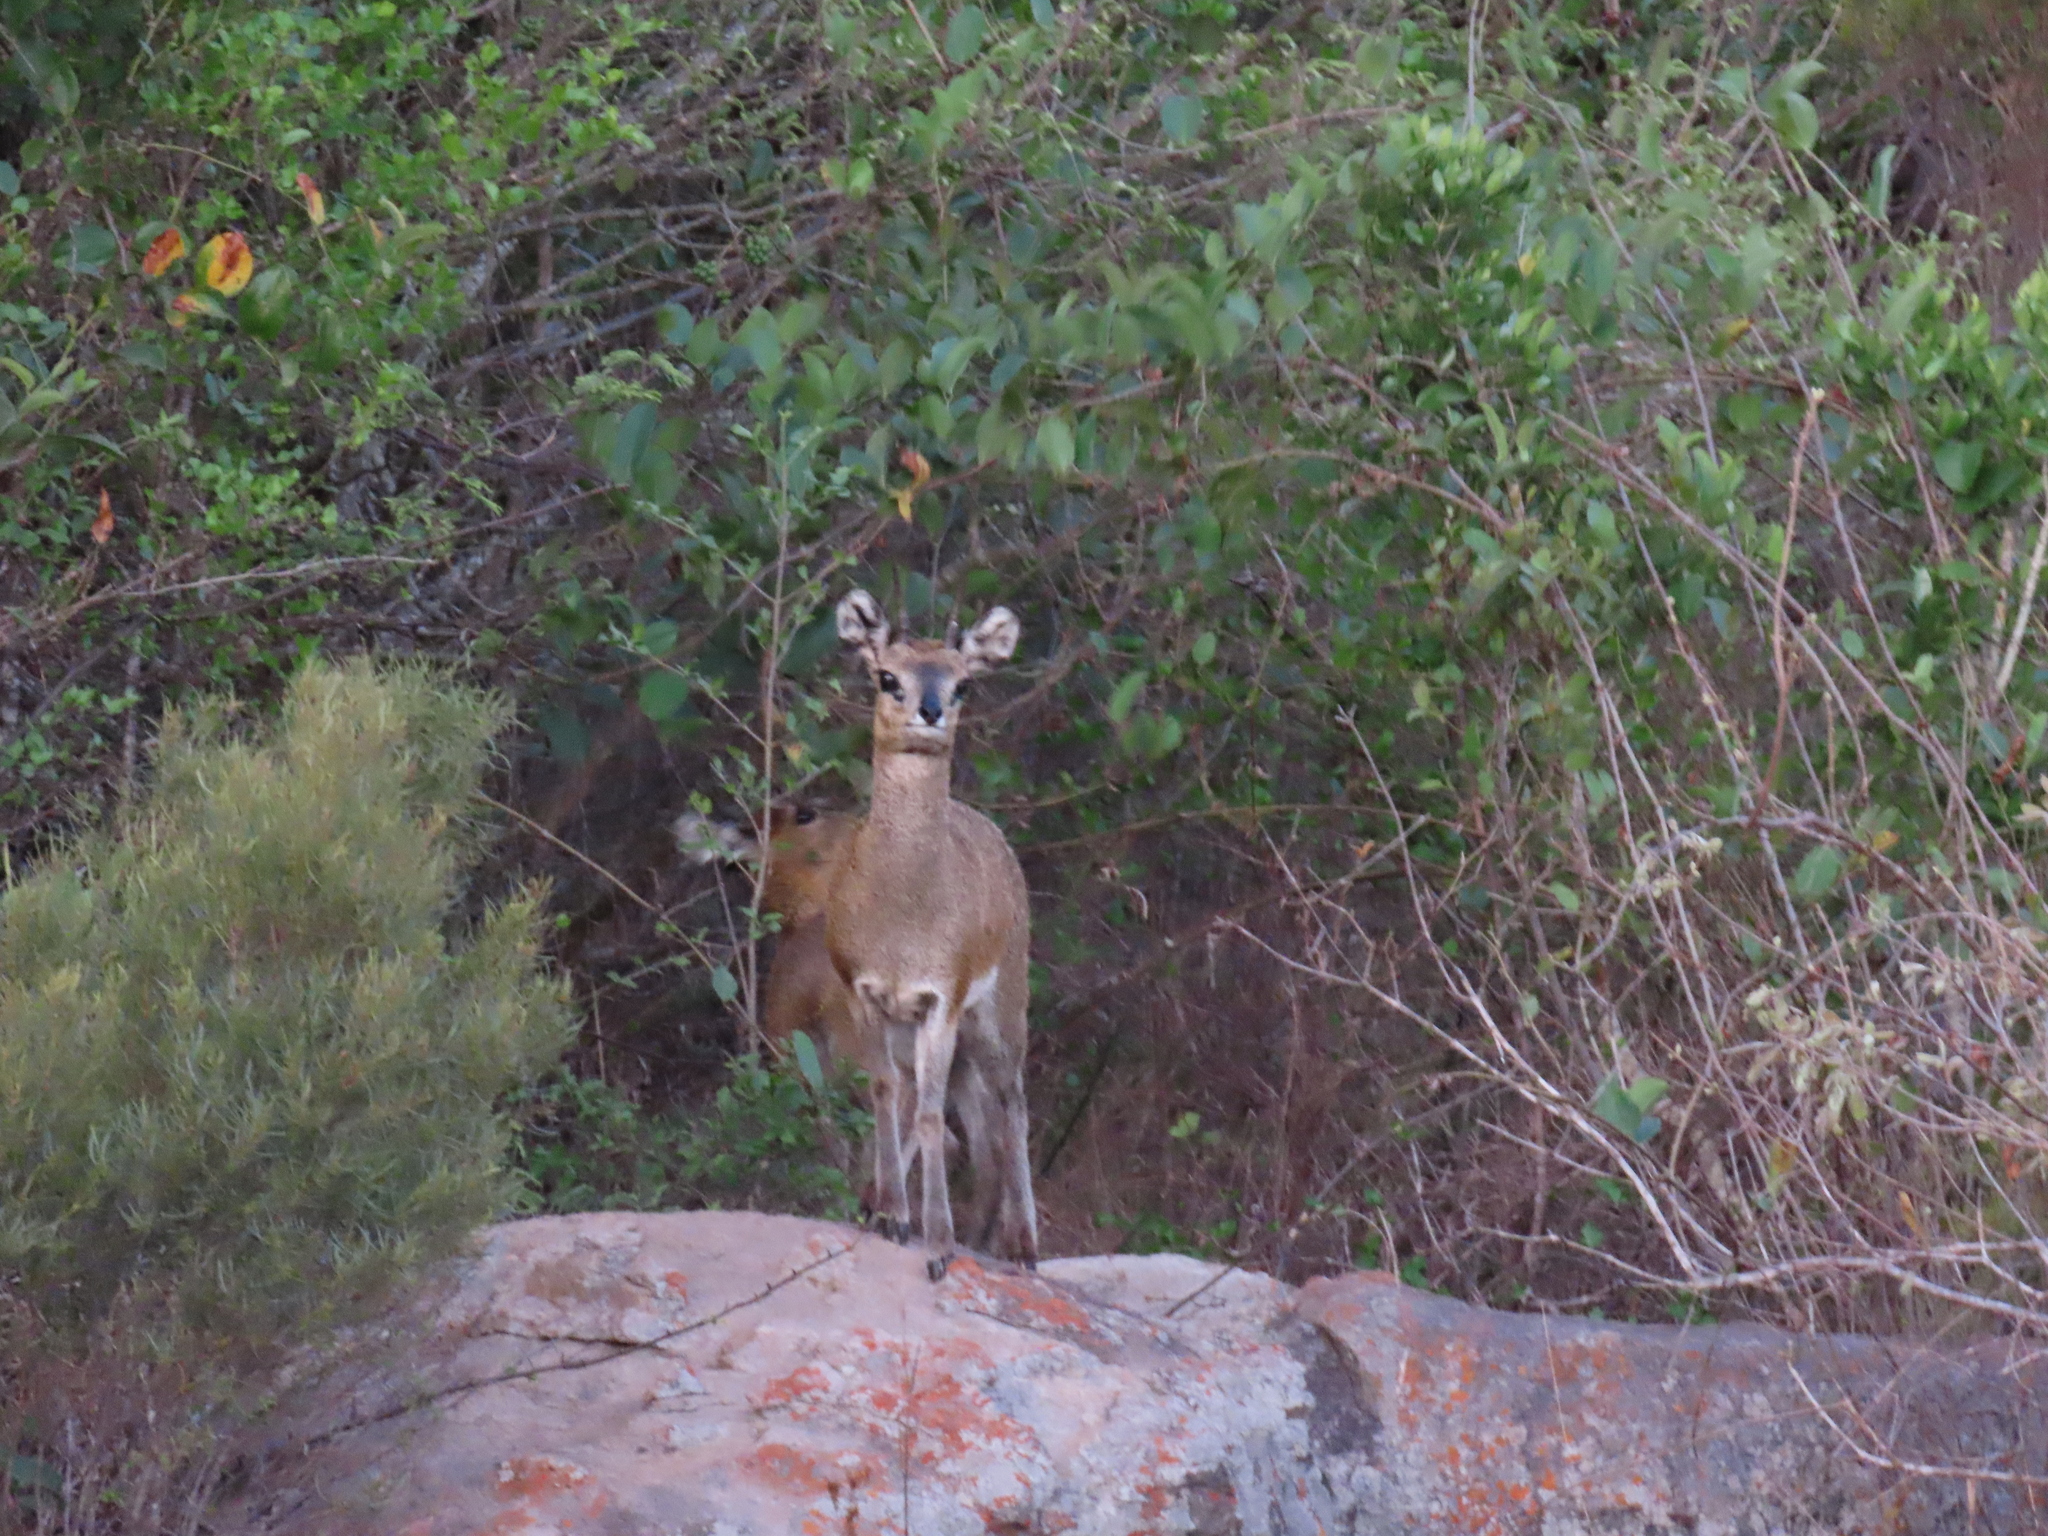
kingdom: Animalia
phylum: Chordata
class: Mammalia
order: Artiodactyla
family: Bovidae
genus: Oreotragus
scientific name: Oreotragus oreotragus
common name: Klipspringer
